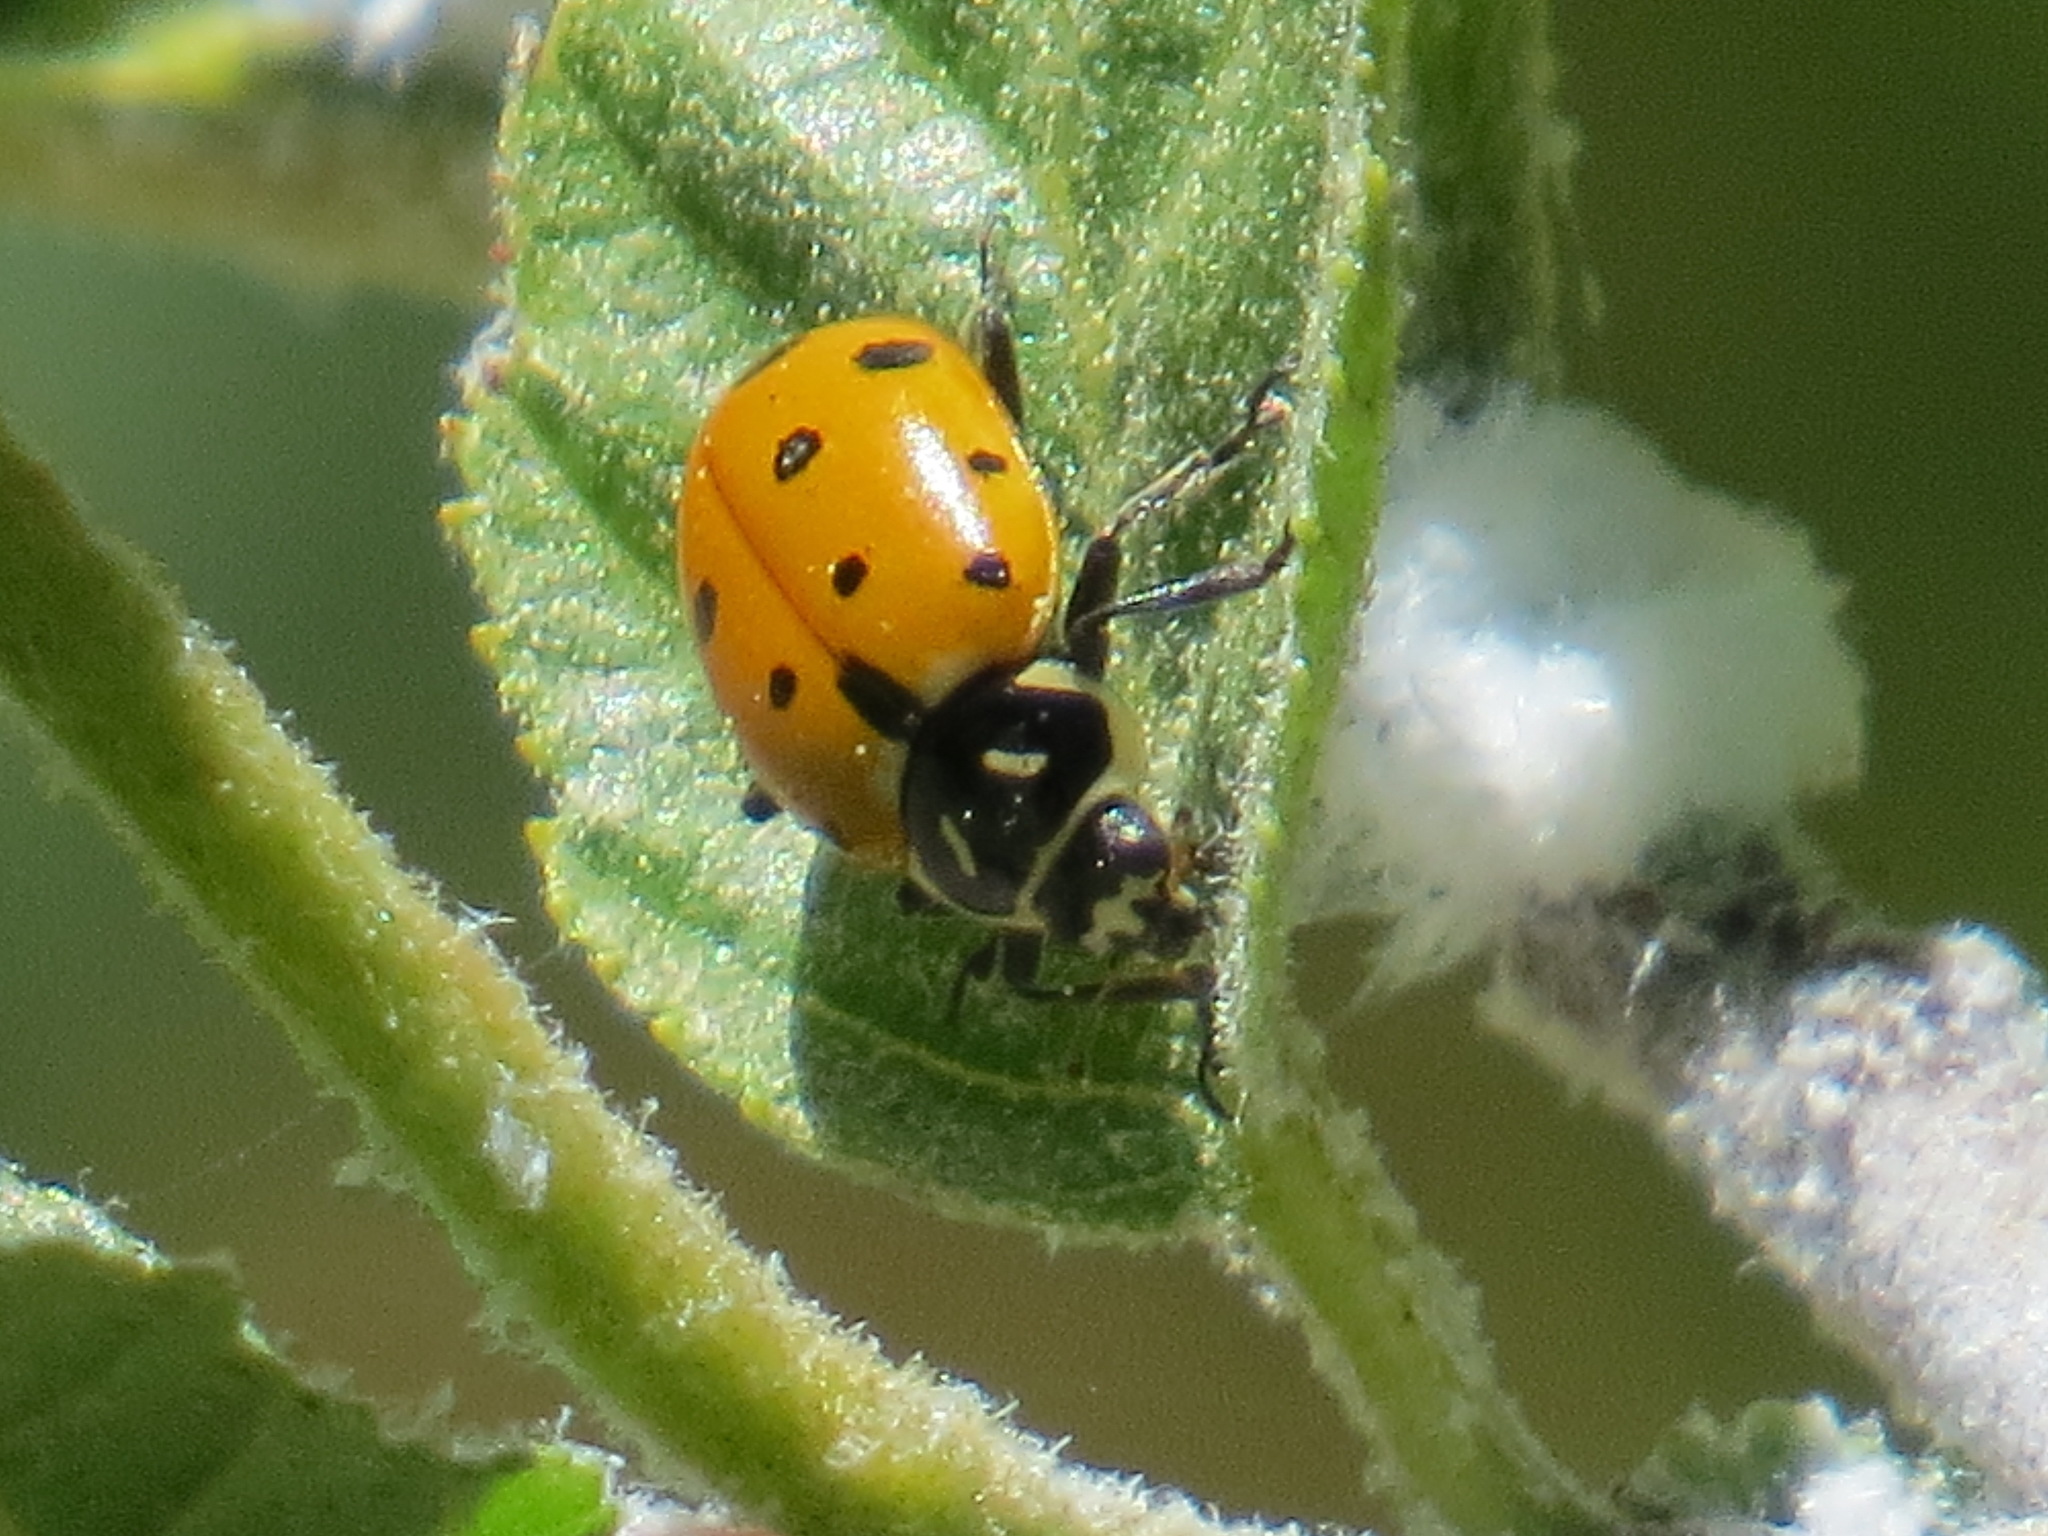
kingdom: Animalia
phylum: Arthropoda
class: Insecta
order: Coleoptera
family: Coccinellidae
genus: Hippodamia
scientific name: Hippodamia convergens
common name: Convergent lady beetle
